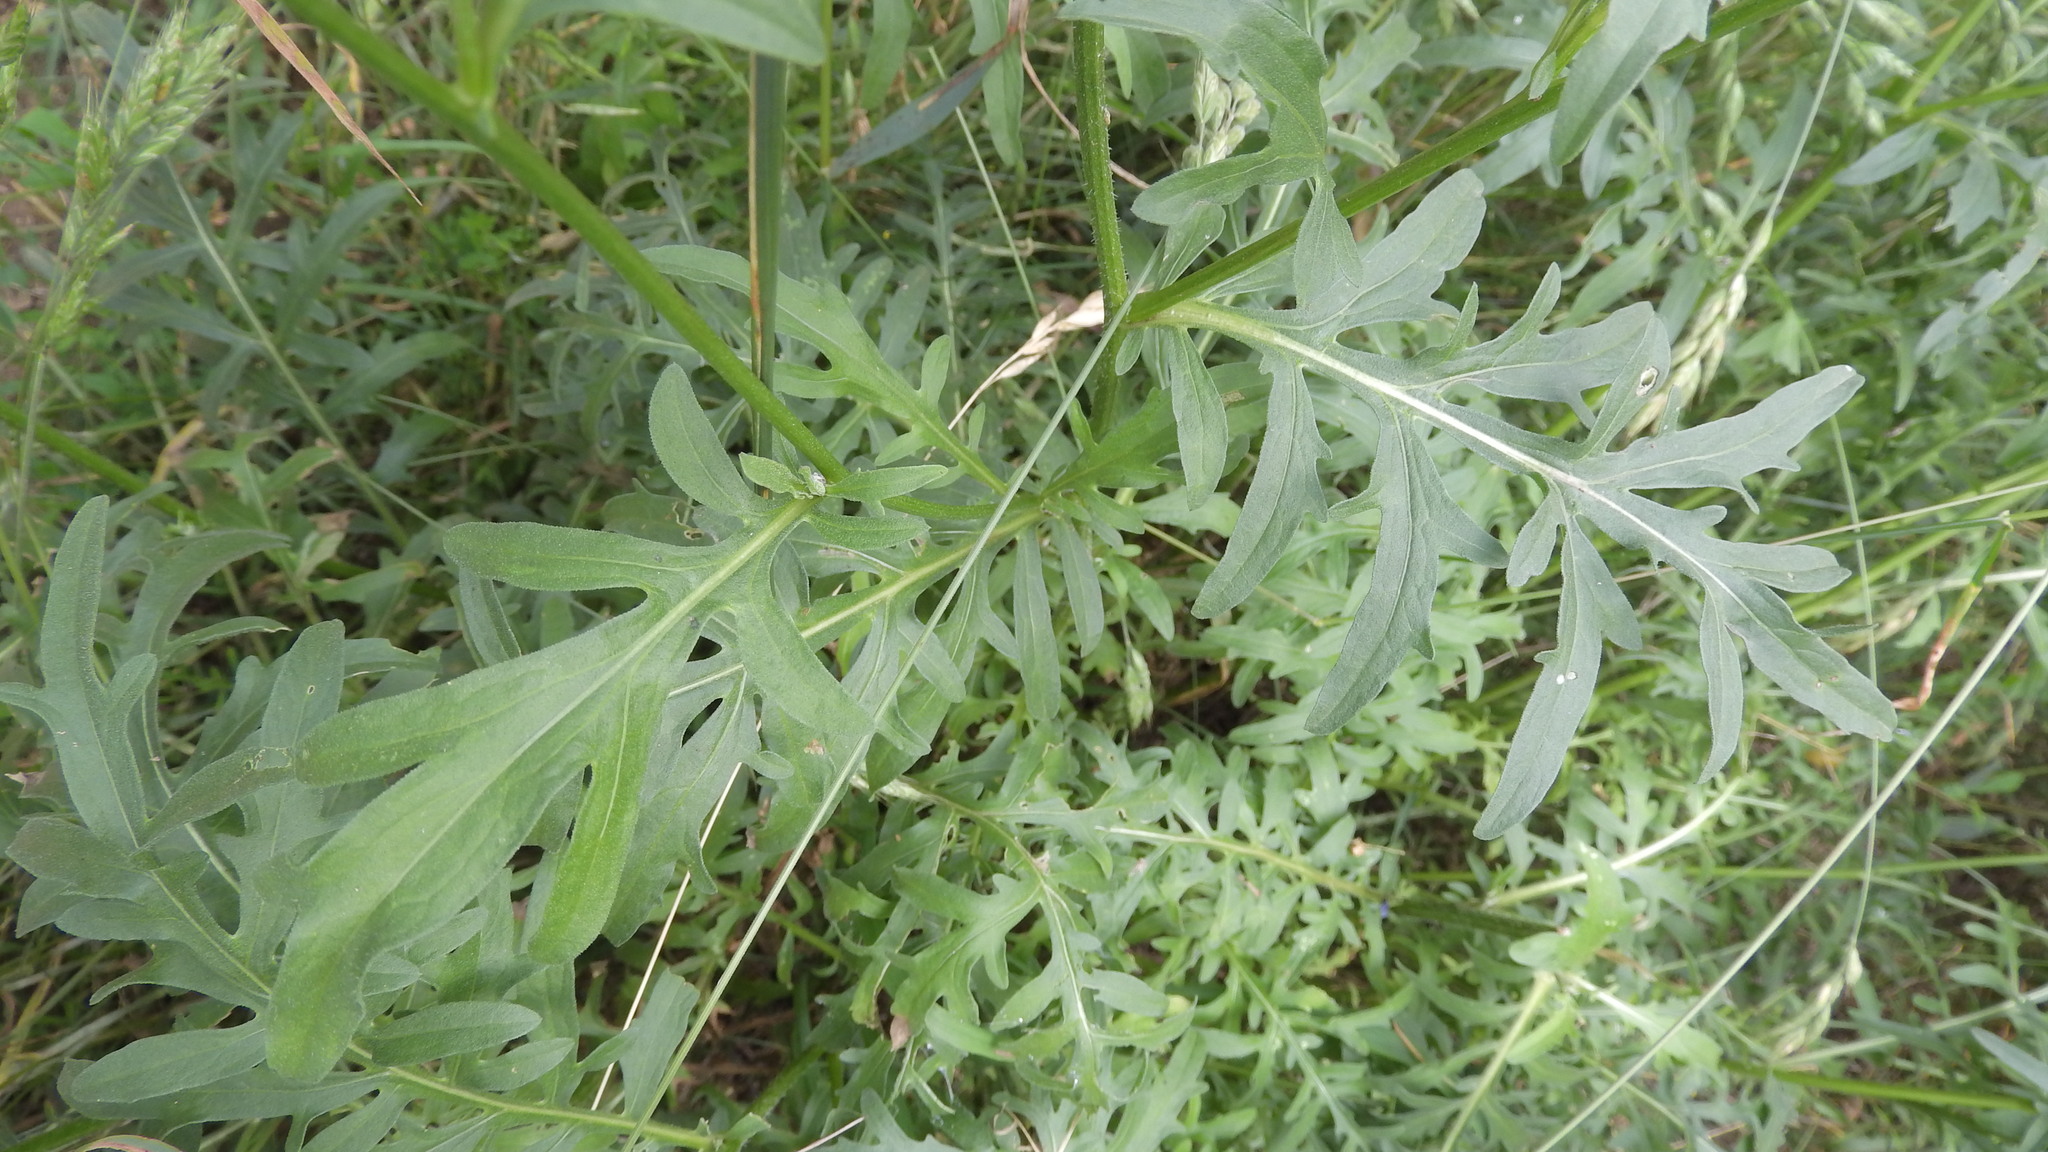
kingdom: Plantae
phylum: Tracheophyta
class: Magnoliopsida
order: Asterales
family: Asteraceae
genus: Centaurea
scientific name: Centaurea scabiosa
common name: Greater knapweed
